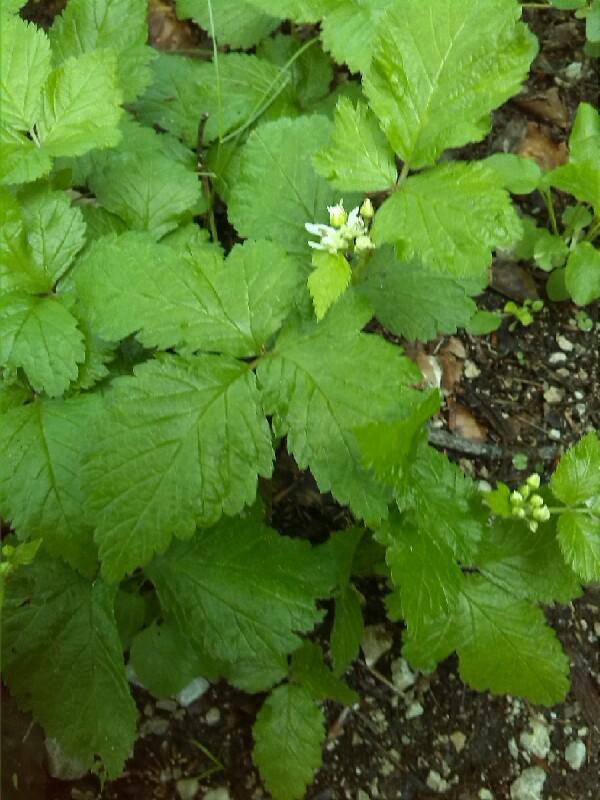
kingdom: Plantae
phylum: Tracheophyta
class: Magnoliopsida
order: Rosales
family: Rosaceae
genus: Rubus
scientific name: Rubus saxatilis
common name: Stone bramble
